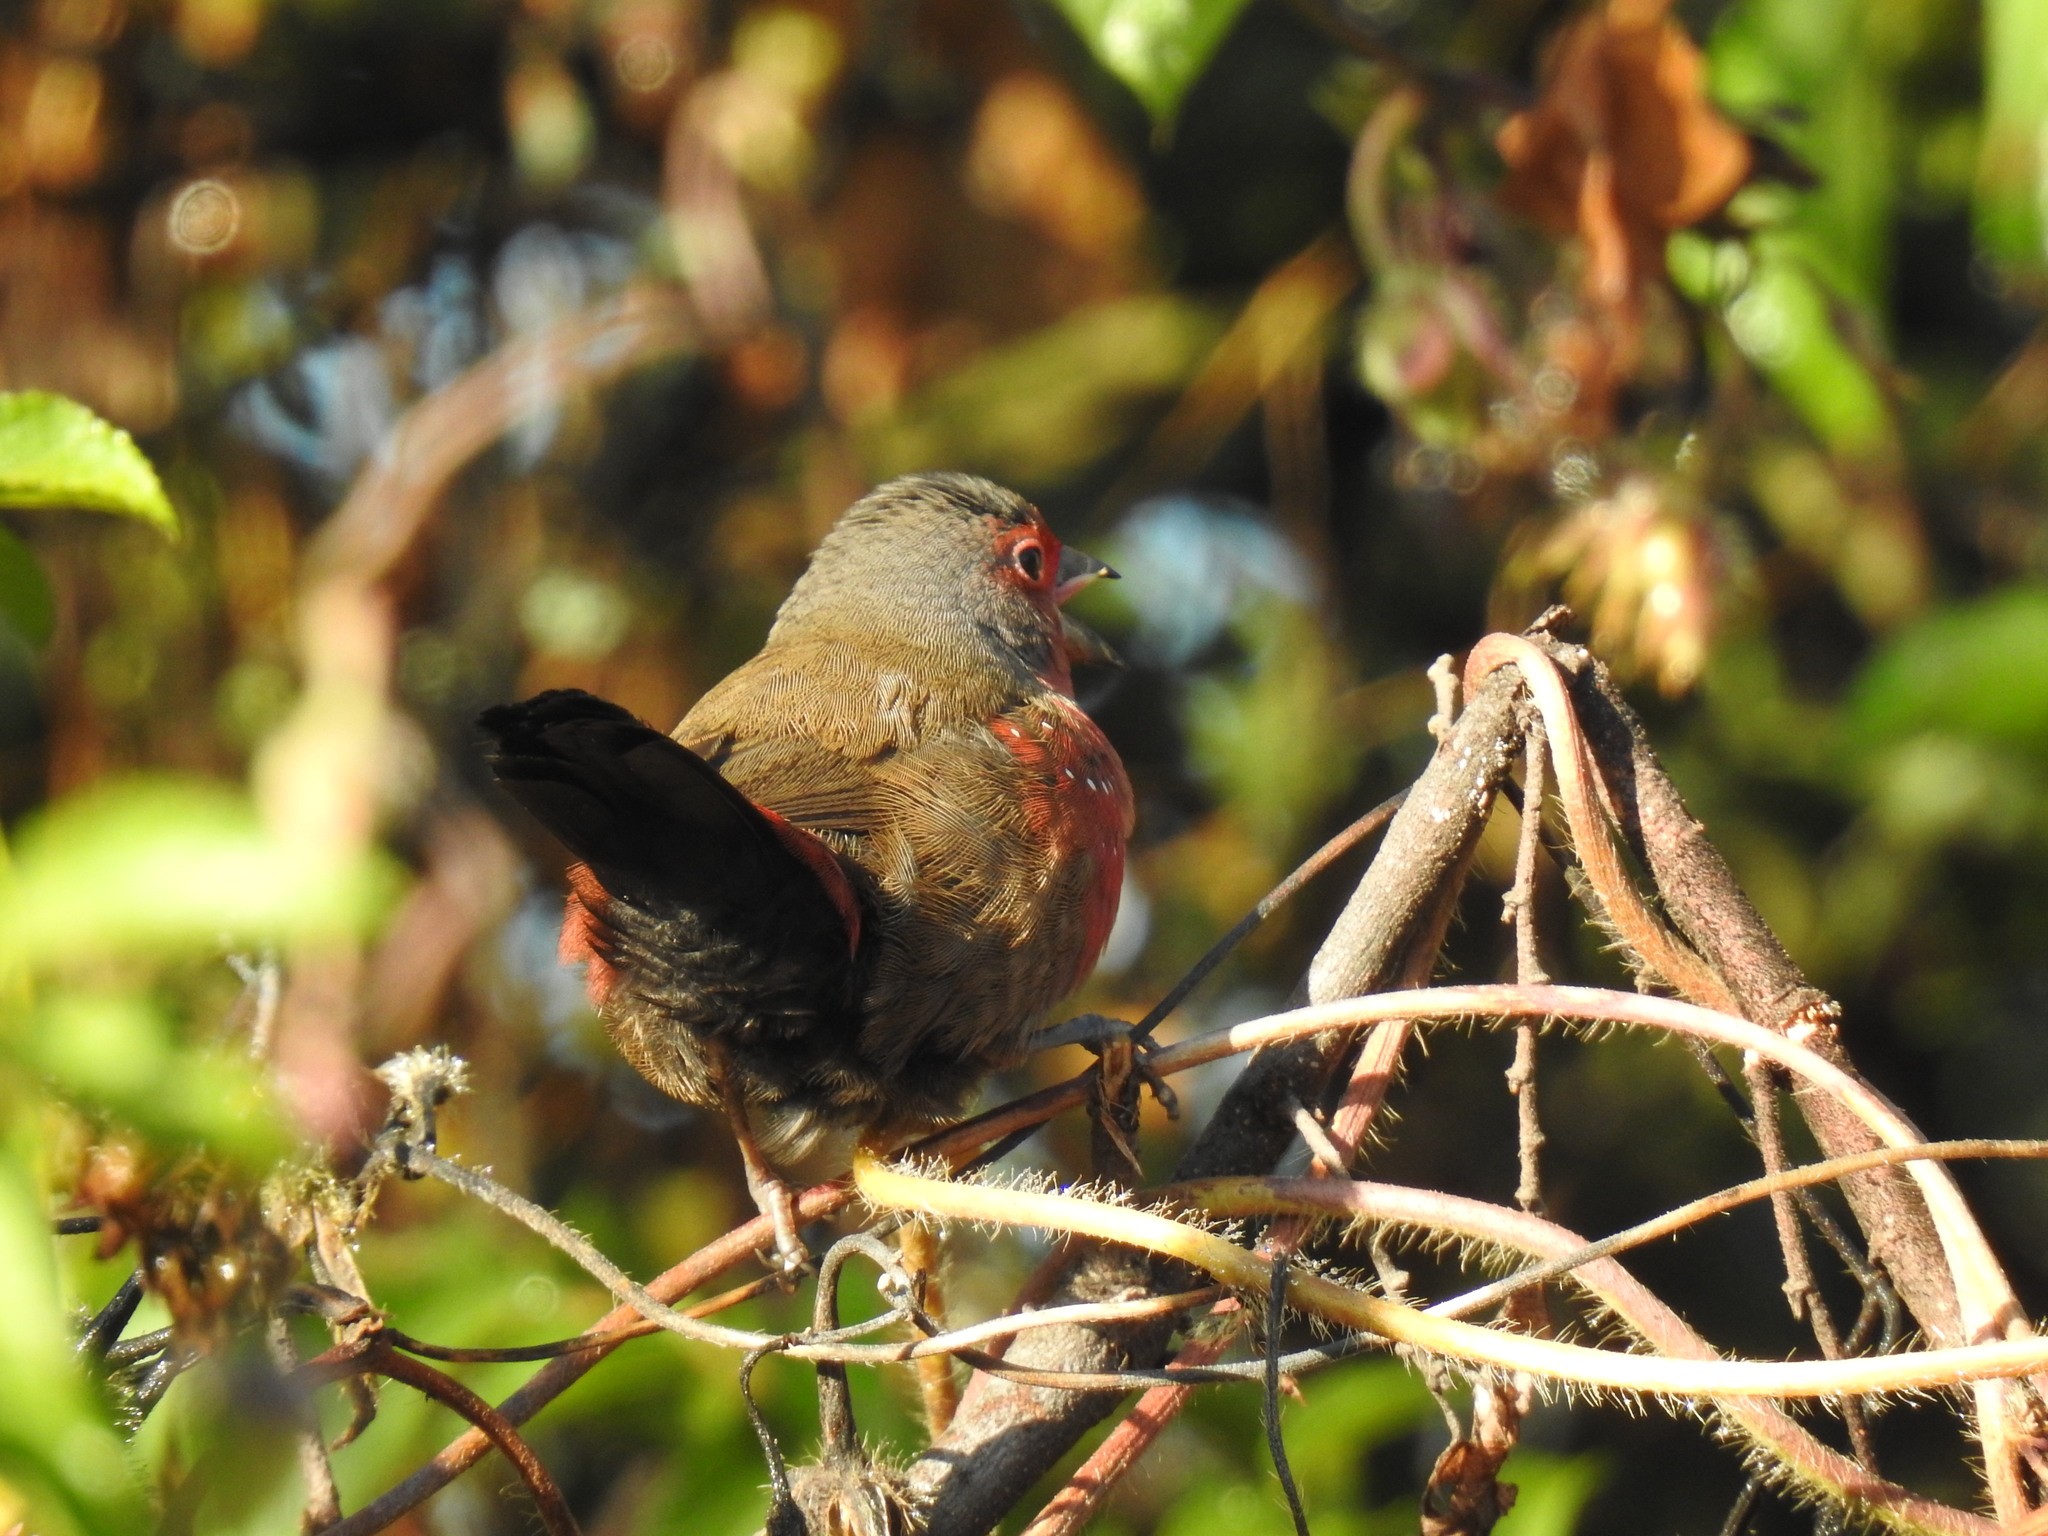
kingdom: Animalia
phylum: Chordata
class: Aves
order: Passeriformes
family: Estrildidae
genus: Lagonosticta
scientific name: Lagonosticta rubricata
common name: African firefinch
